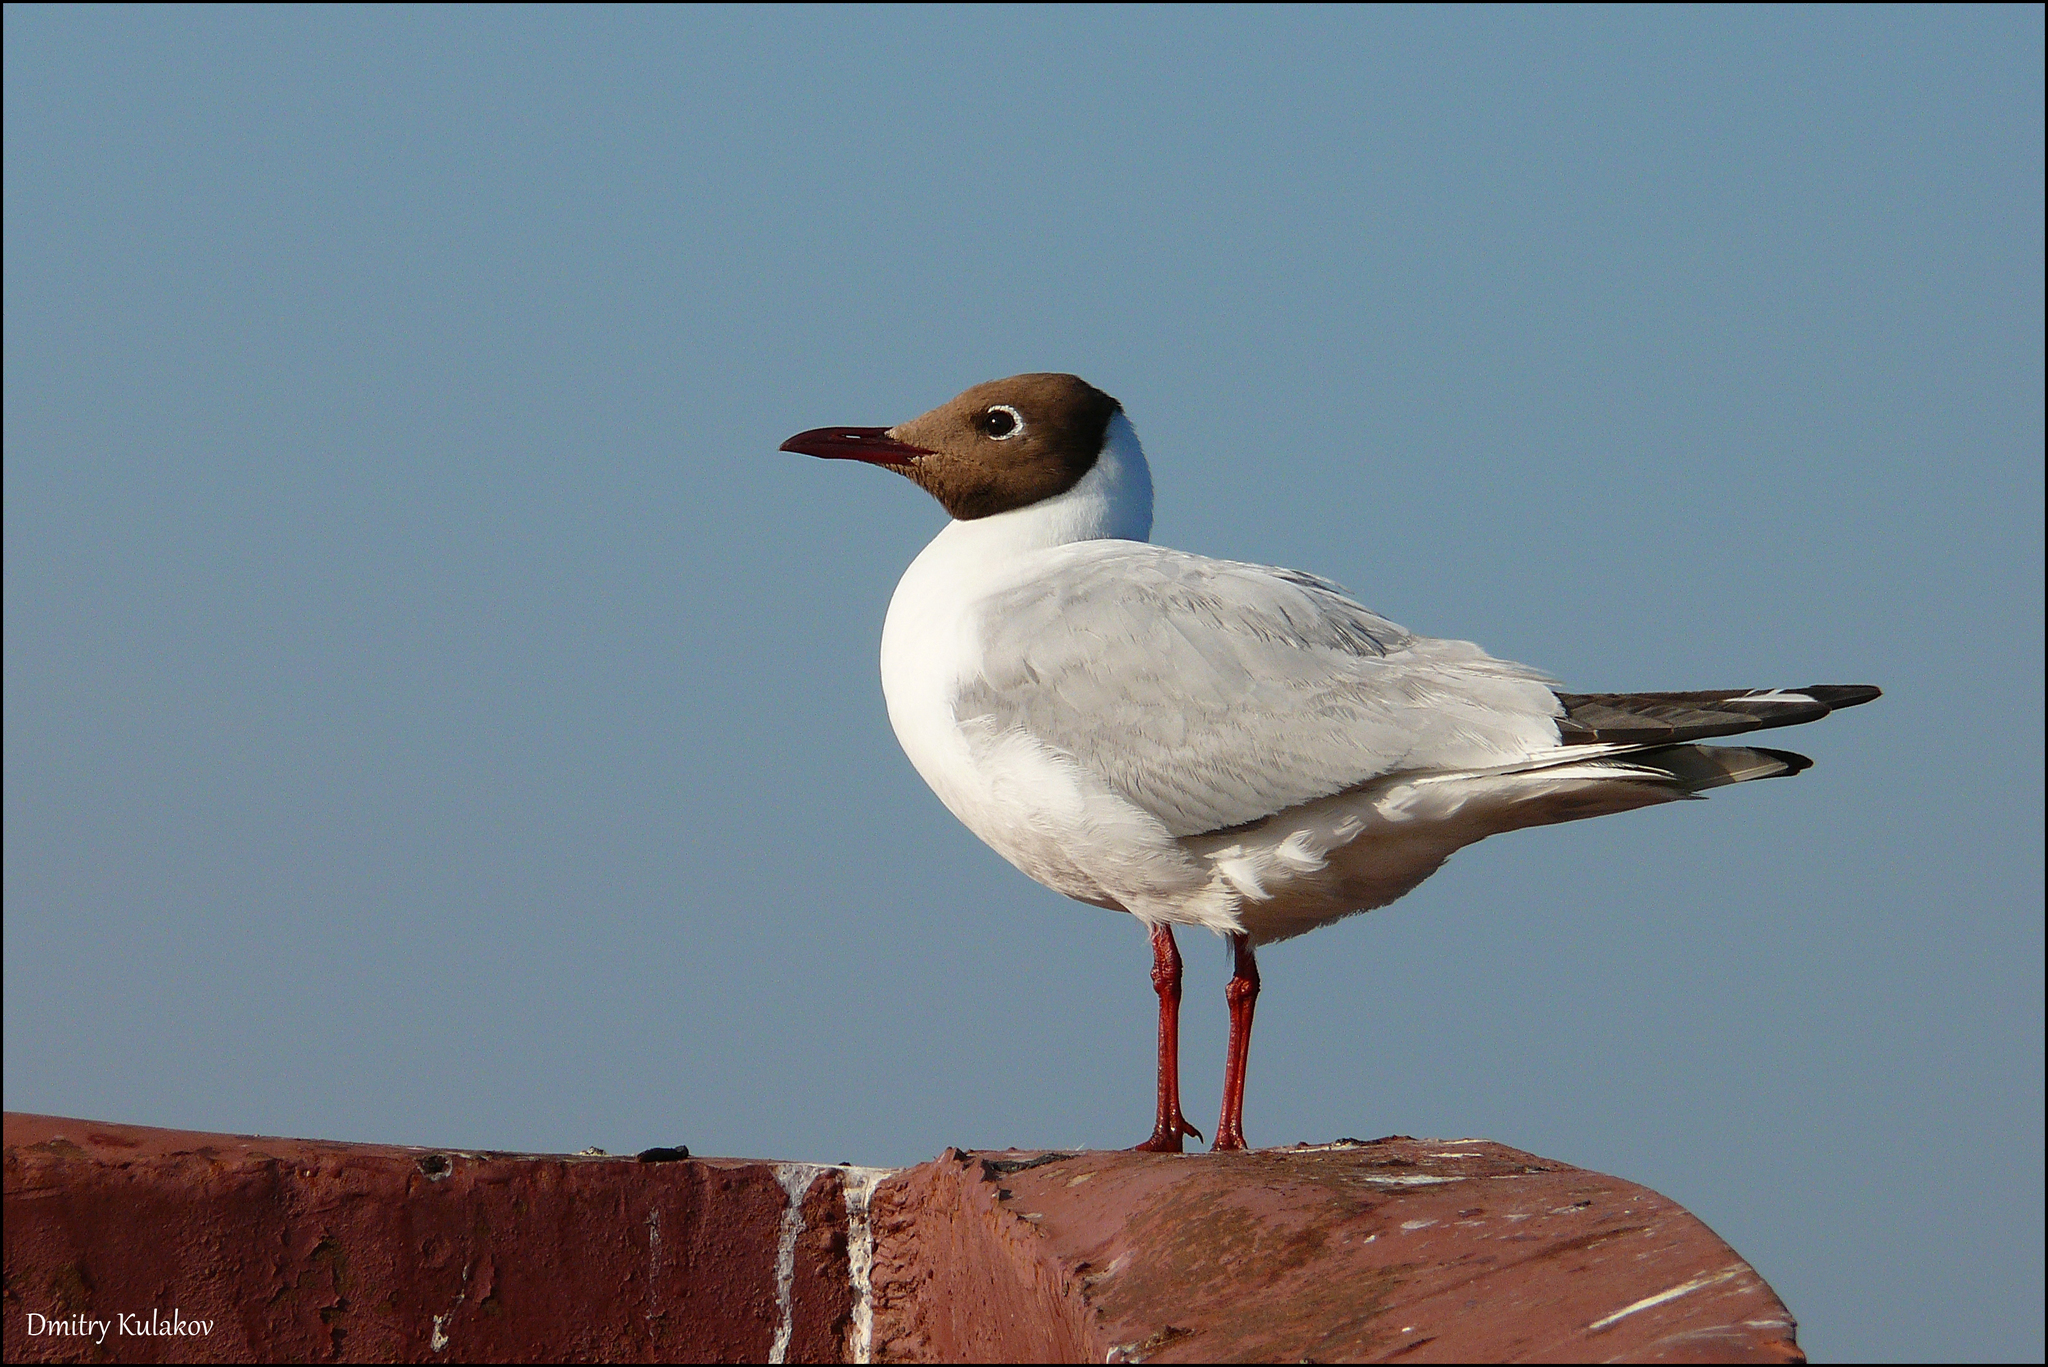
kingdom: Animalia
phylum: Chordata
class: Aves
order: Charadriiformes
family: Laridae
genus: Chroicocephalus
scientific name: Chroicocephalus ridibundus
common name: Black-headed gull
